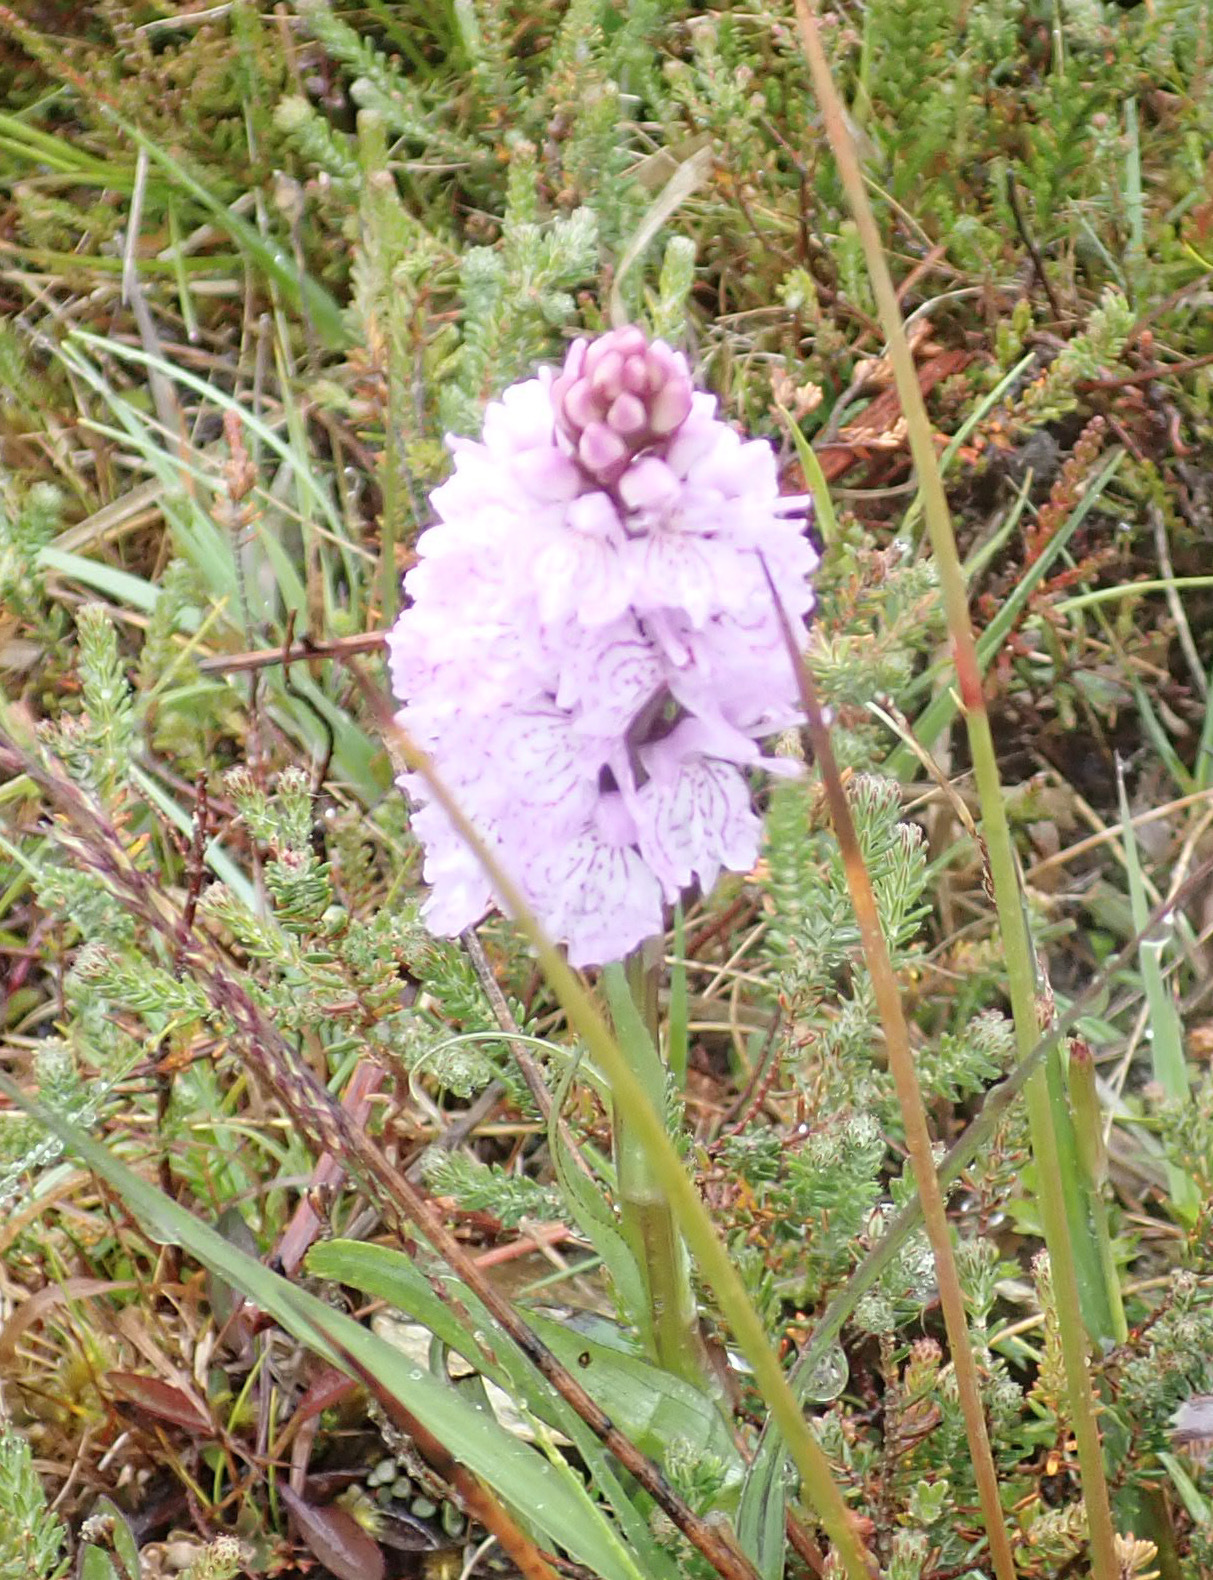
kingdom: Plantae
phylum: Tracheophyta
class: Liliopsida
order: Asparagales
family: Orchidaceae
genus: Dactylorhiza
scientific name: Dactylorhiza maculata
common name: Heath spotted-orchid
